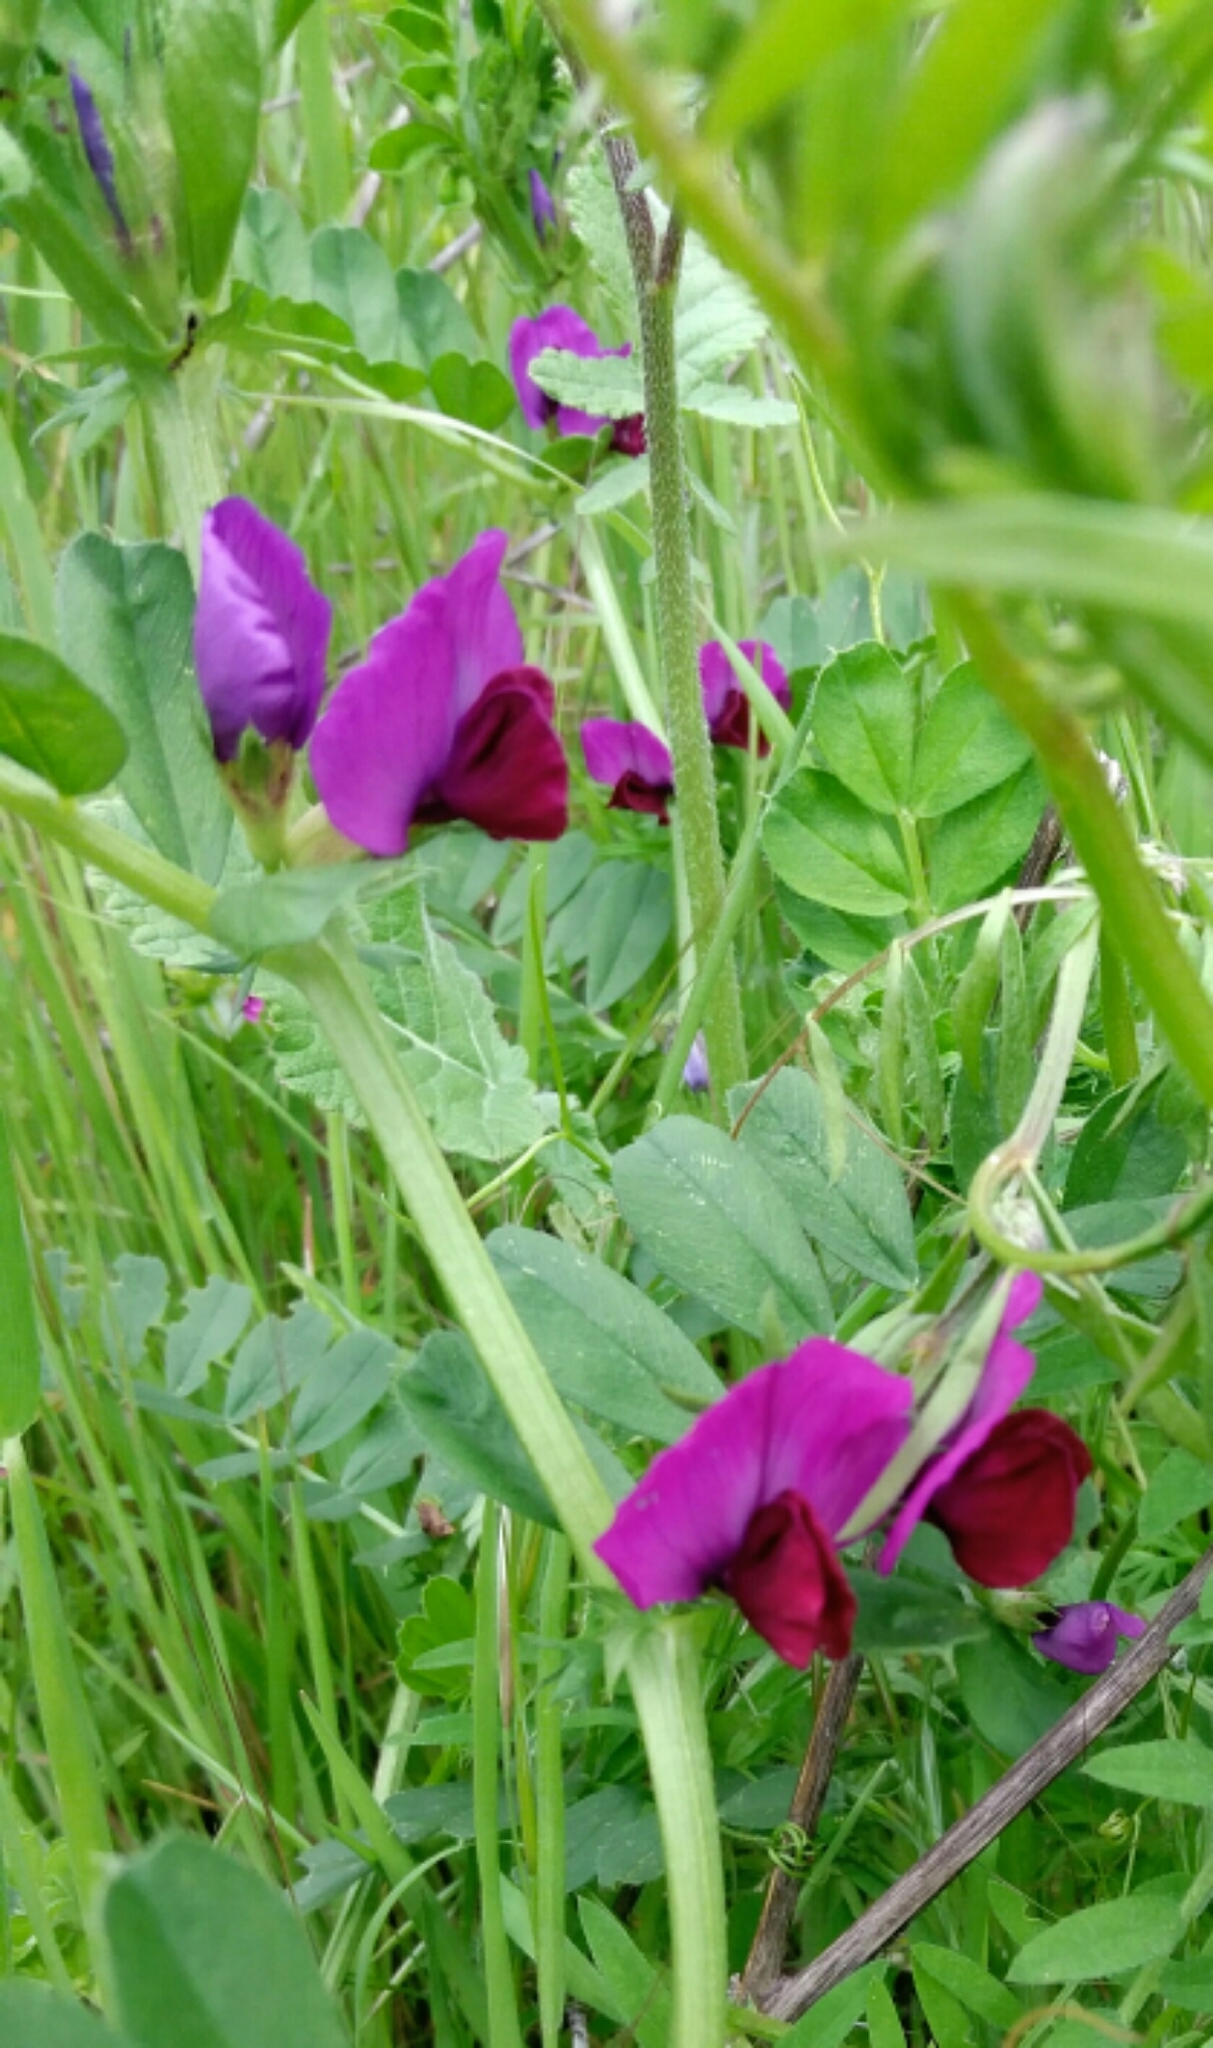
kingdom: Plantae
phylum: Tracheophyta
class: Magnoliopsida
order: Fabales
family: Fabaceae
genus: Vicia
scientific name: Vicia sativa
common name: Garden vetch
